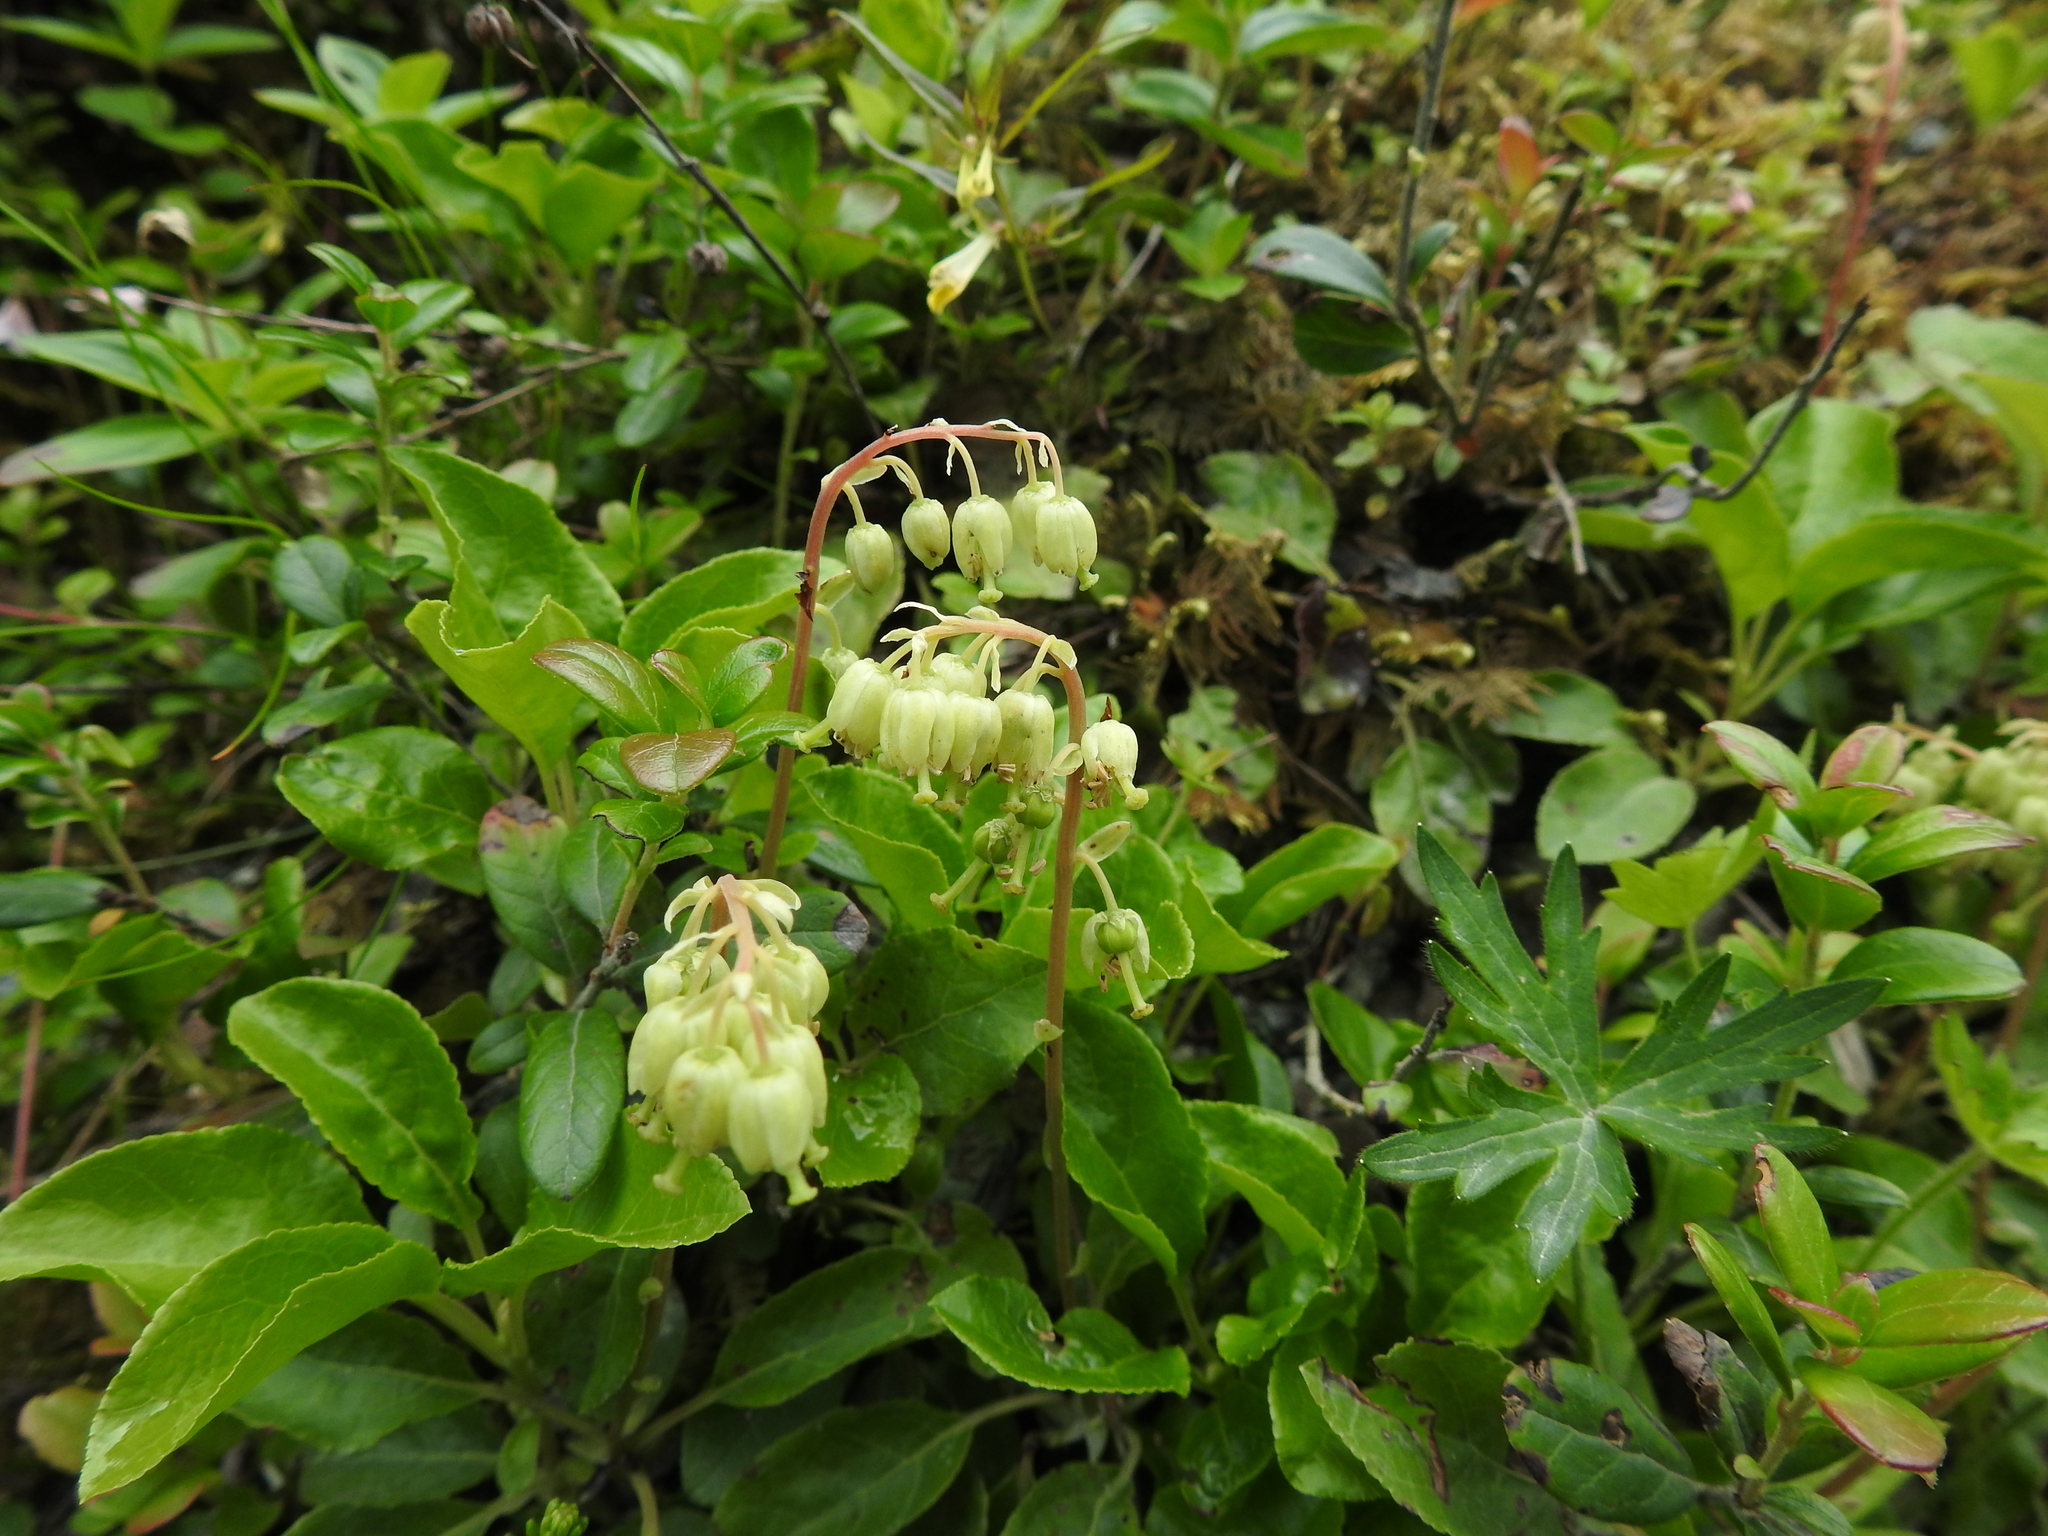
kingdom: Plantae
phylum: Tracheophyta
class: Magnoliopsida
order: Ericales
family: Ericaceae
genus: Orthilia
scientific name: Orthilia secunda
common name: One-sided orthilia
